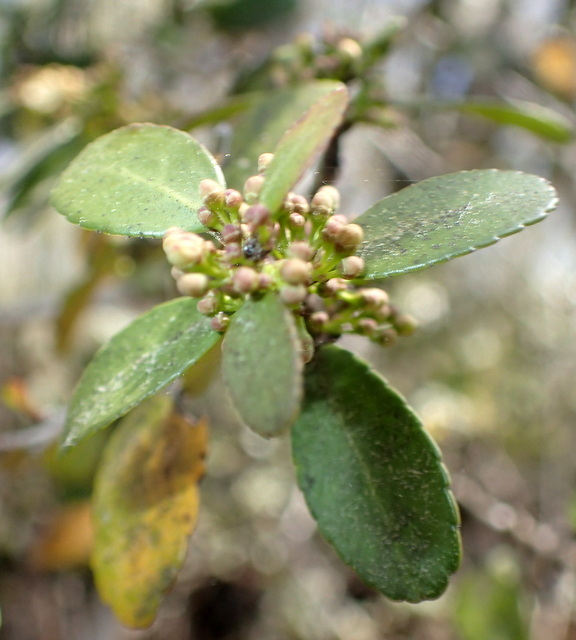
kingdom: Plantae
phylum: Tracheophyta
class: Magnoliopsida
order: Aquifoliales
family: Aquifoliaceae
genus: Ilex
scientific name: Ilex vomitoria
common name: Yaupon holly
